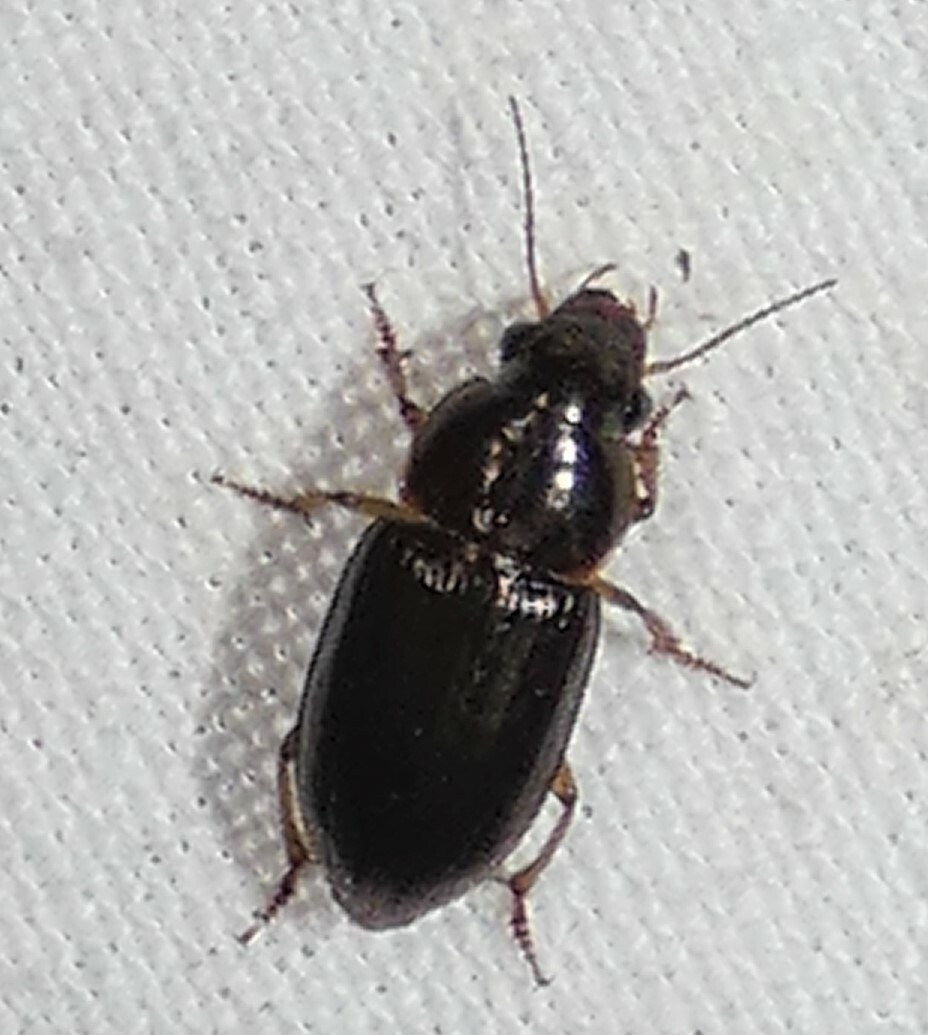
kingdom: Animalia
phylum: Arthropoda
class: Insecta
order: Coleoptera
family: Carabidae
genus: Selenophorus
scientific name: Selenophorus palliatus
